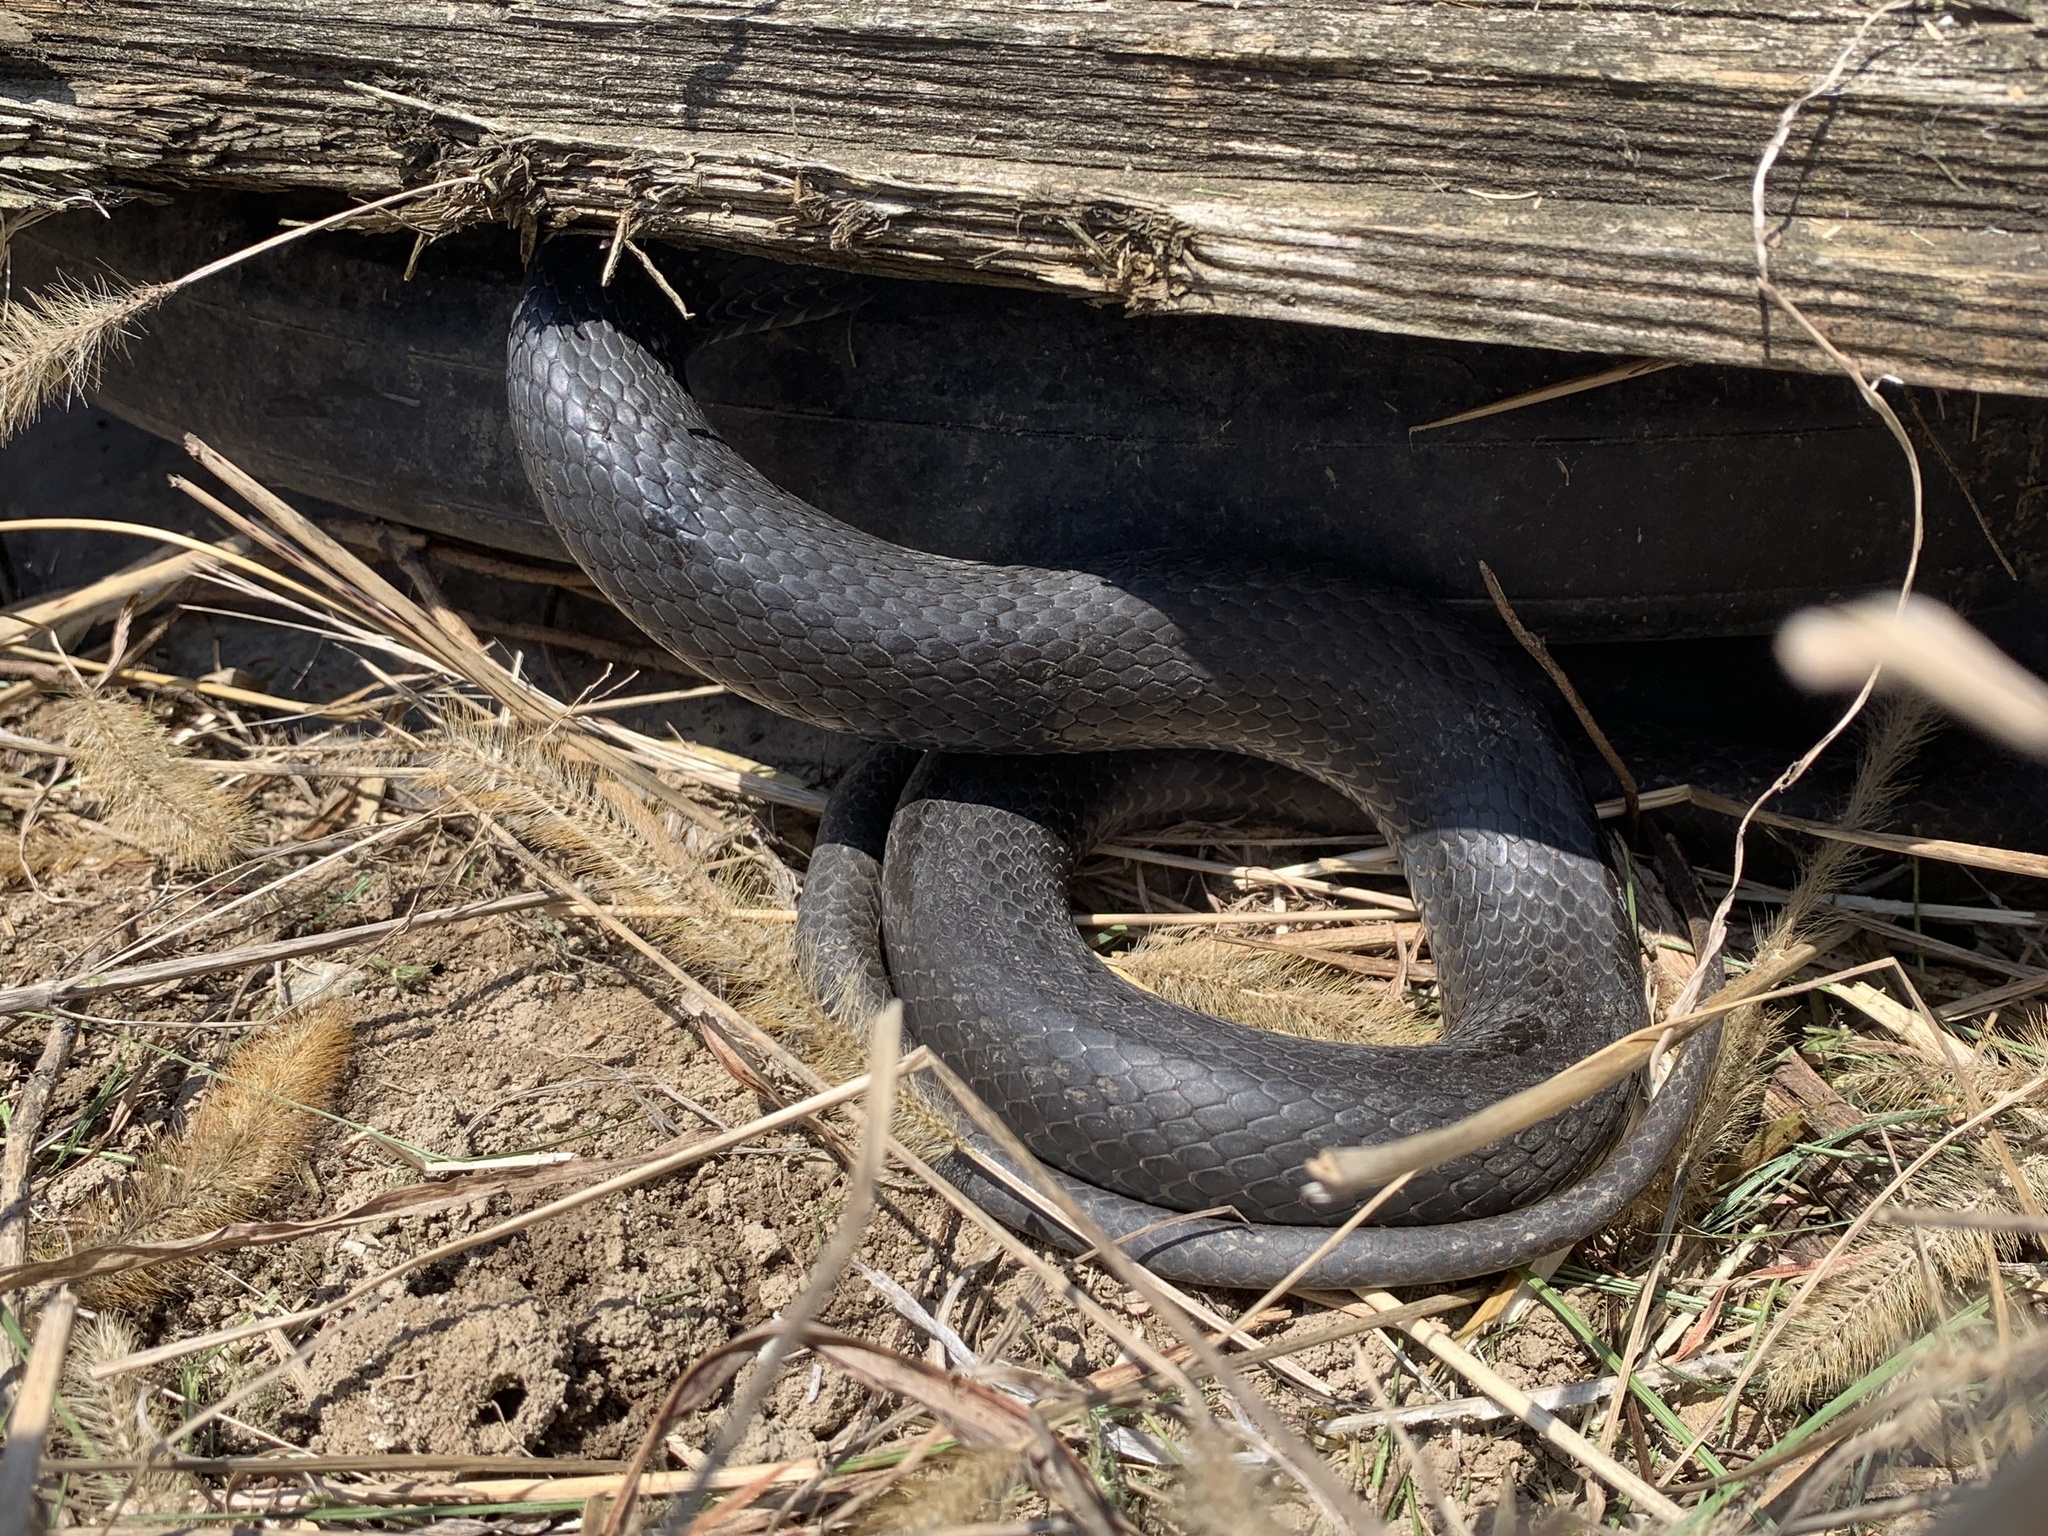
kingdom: Animalia
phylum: Chordata
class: Squamata
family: Colubridae
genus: Coluber
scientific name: Coluber constrictor
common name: Eastern racer
